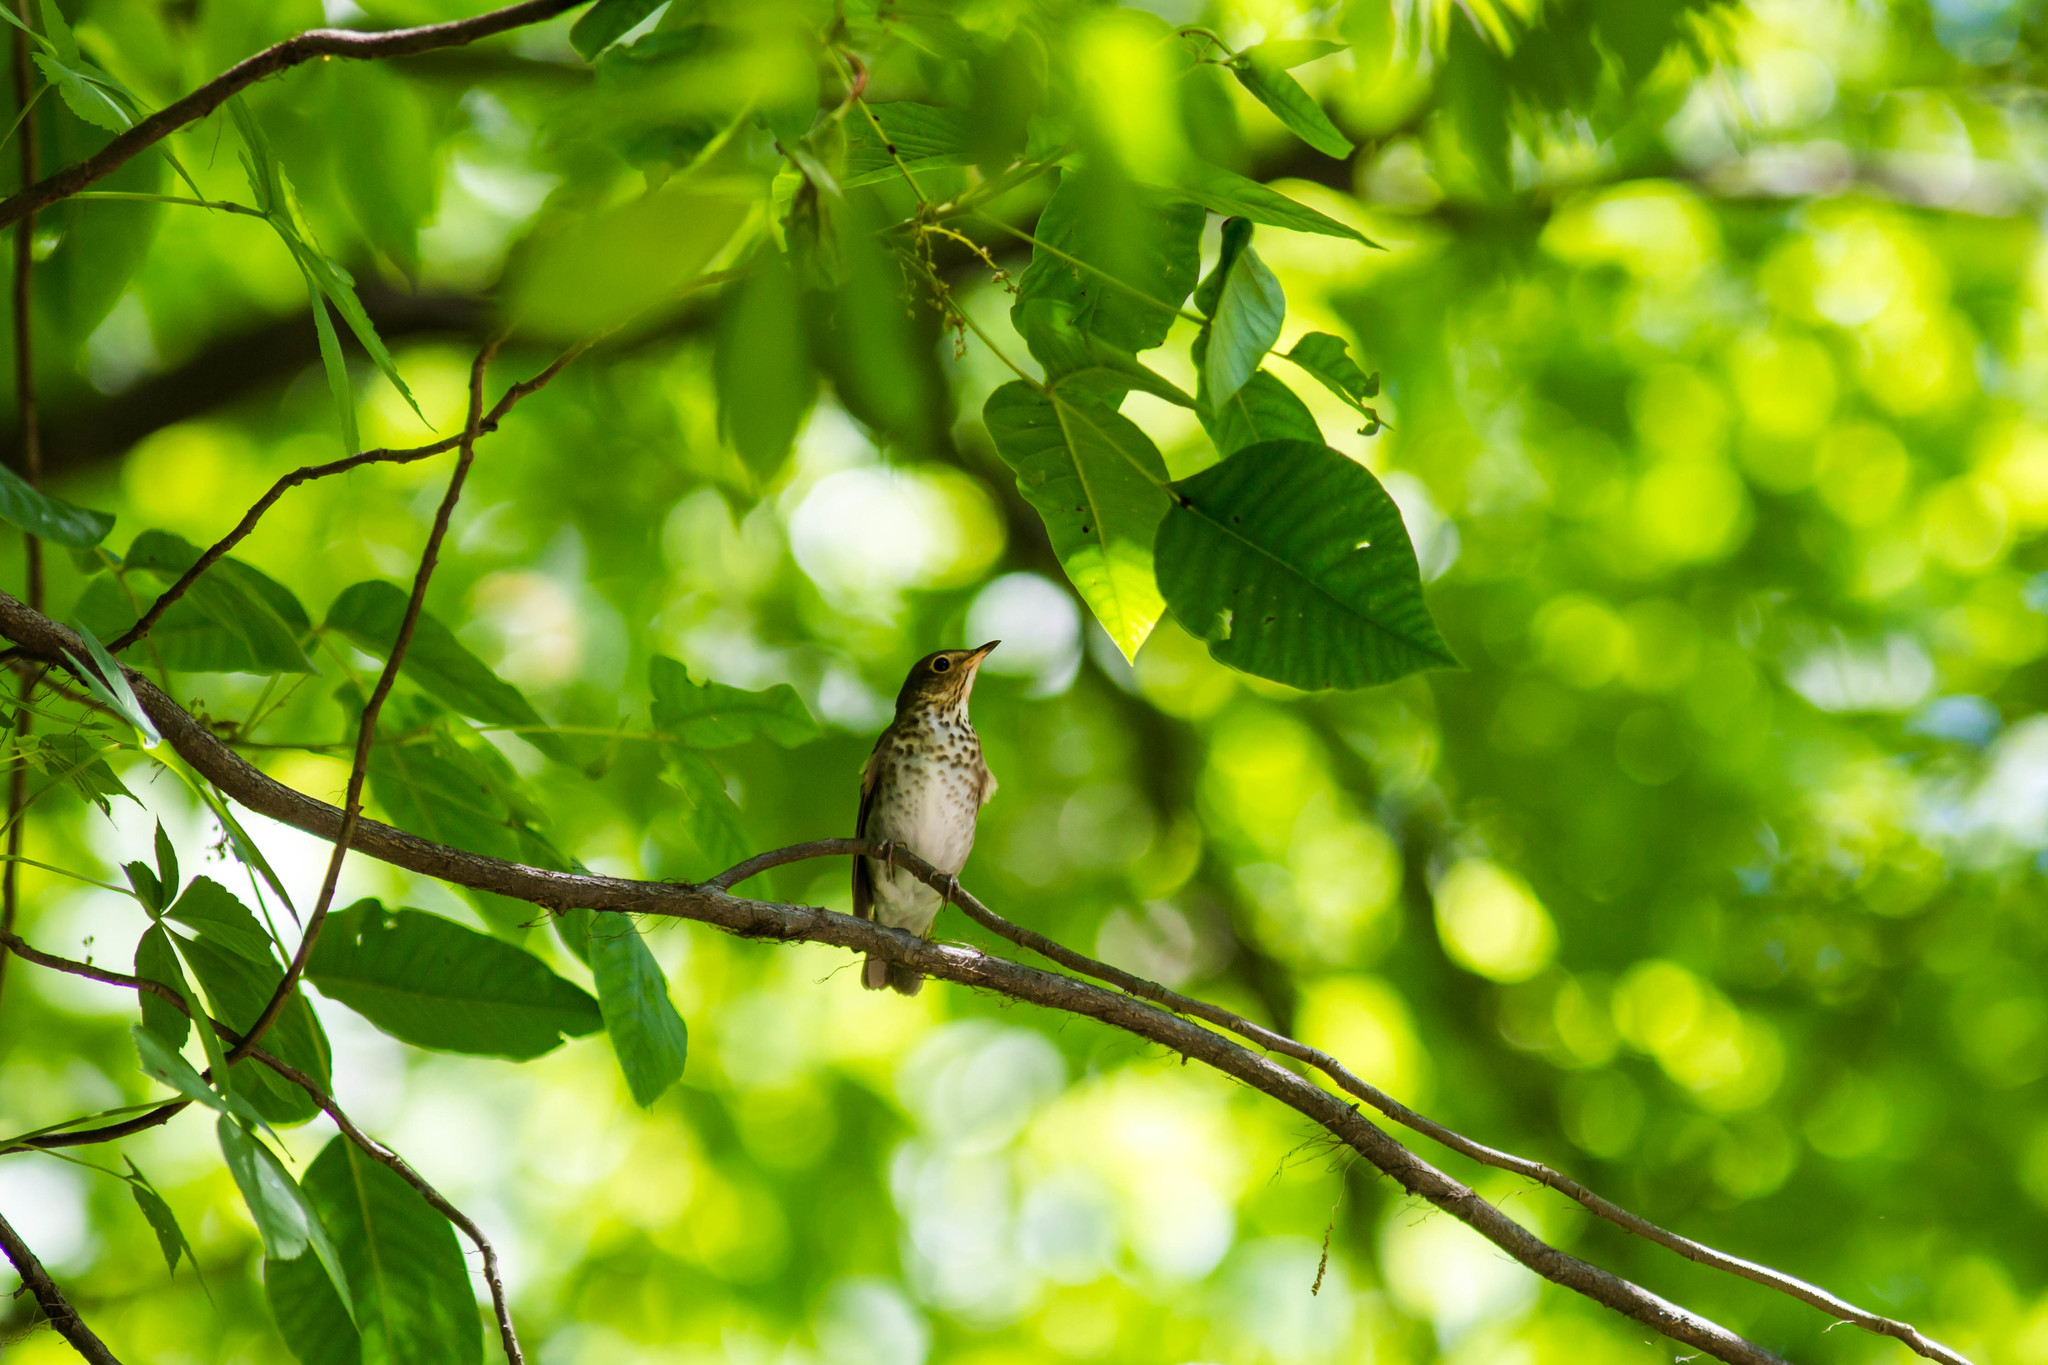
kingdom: Animalia
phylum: Chordata
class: Aves
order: Passeriformes
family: Turdidae
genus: Catharus
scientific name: Catharus ustulatus
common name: Swainson's thrush
